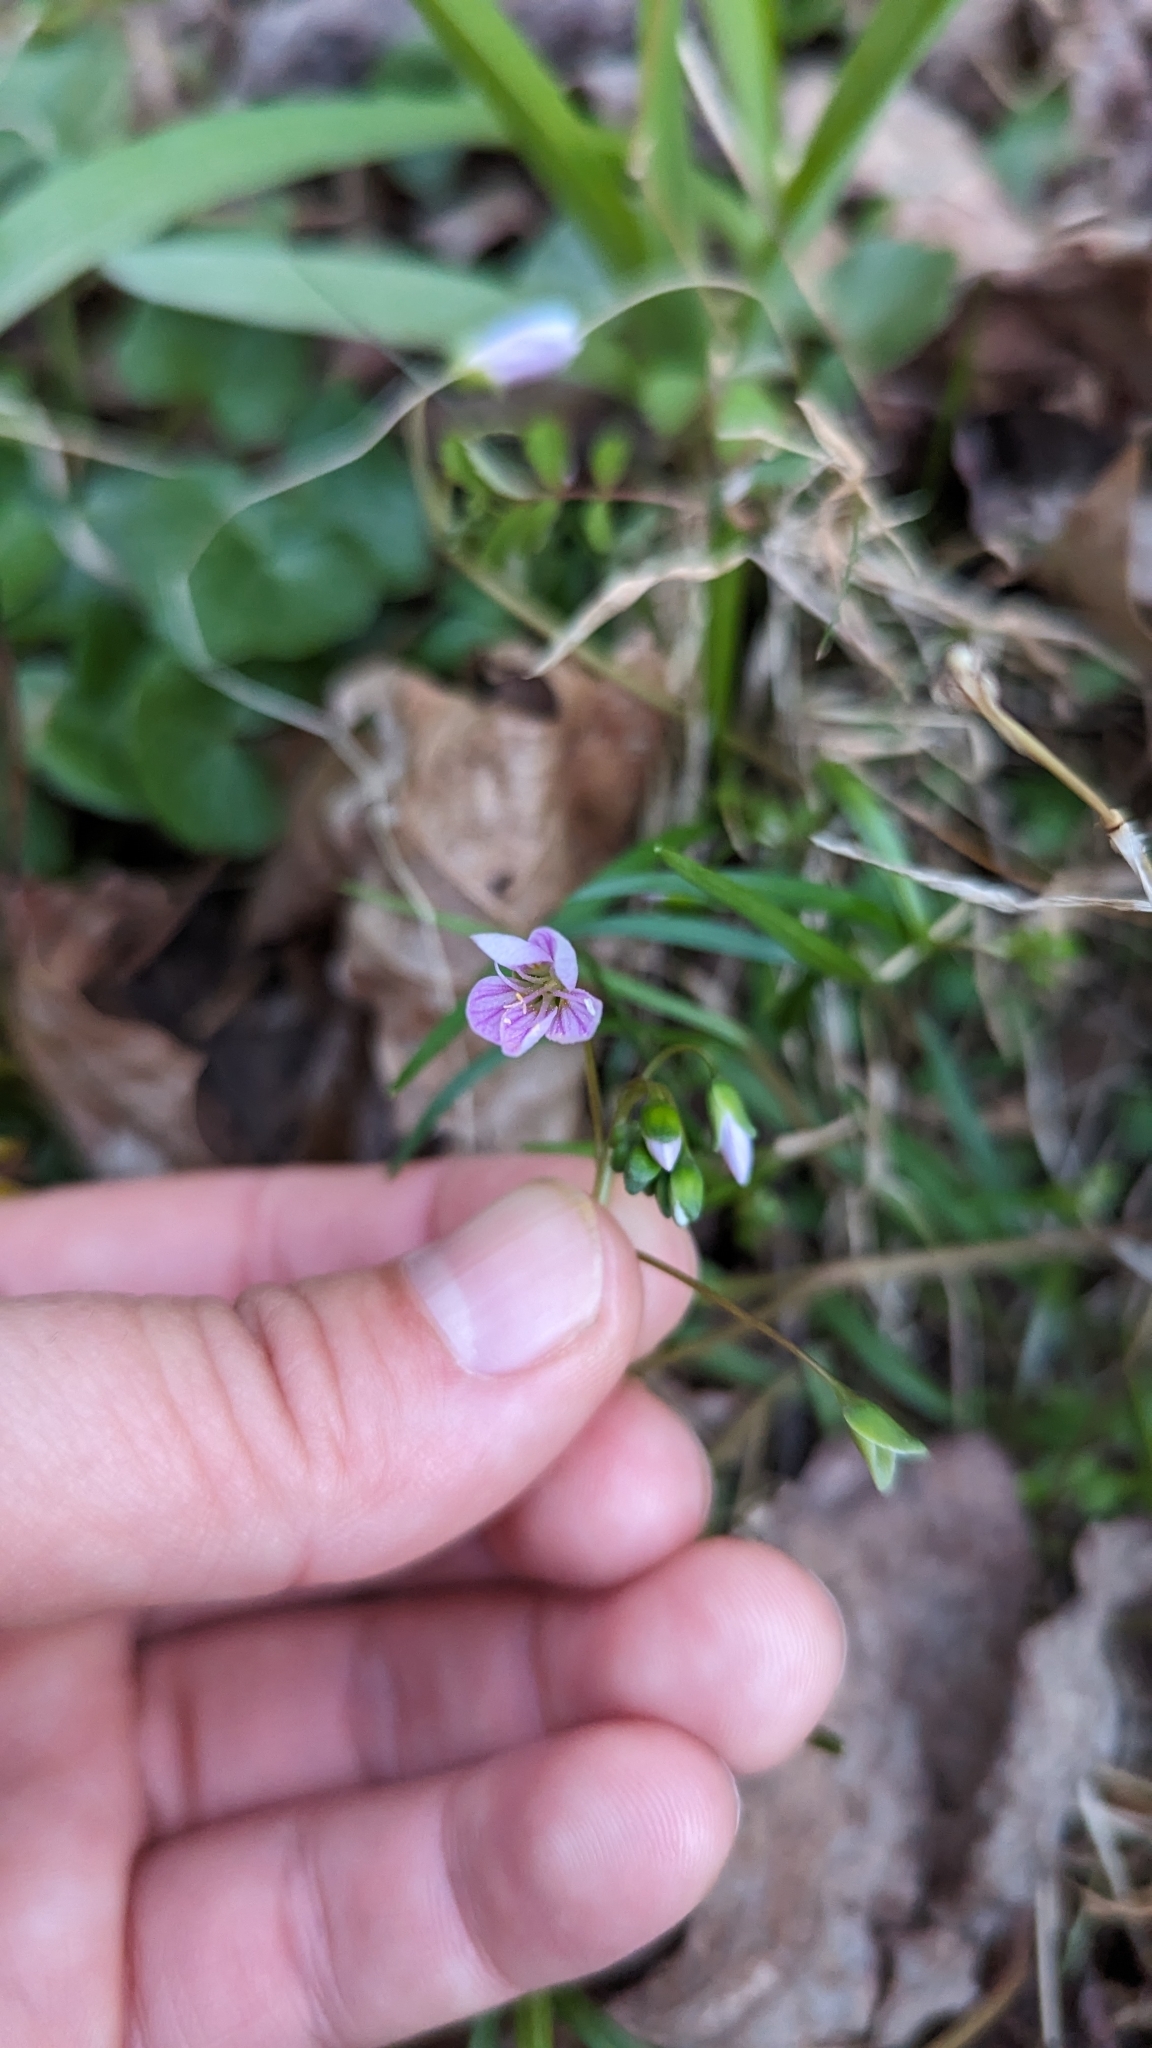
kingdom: Plantae
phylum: Tracheophyta
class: Magnoliopsida
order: Caryophyllales
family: Montiaceae
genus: Claytonia
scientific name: Claytonia virginica
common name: Virginia springbeauty
